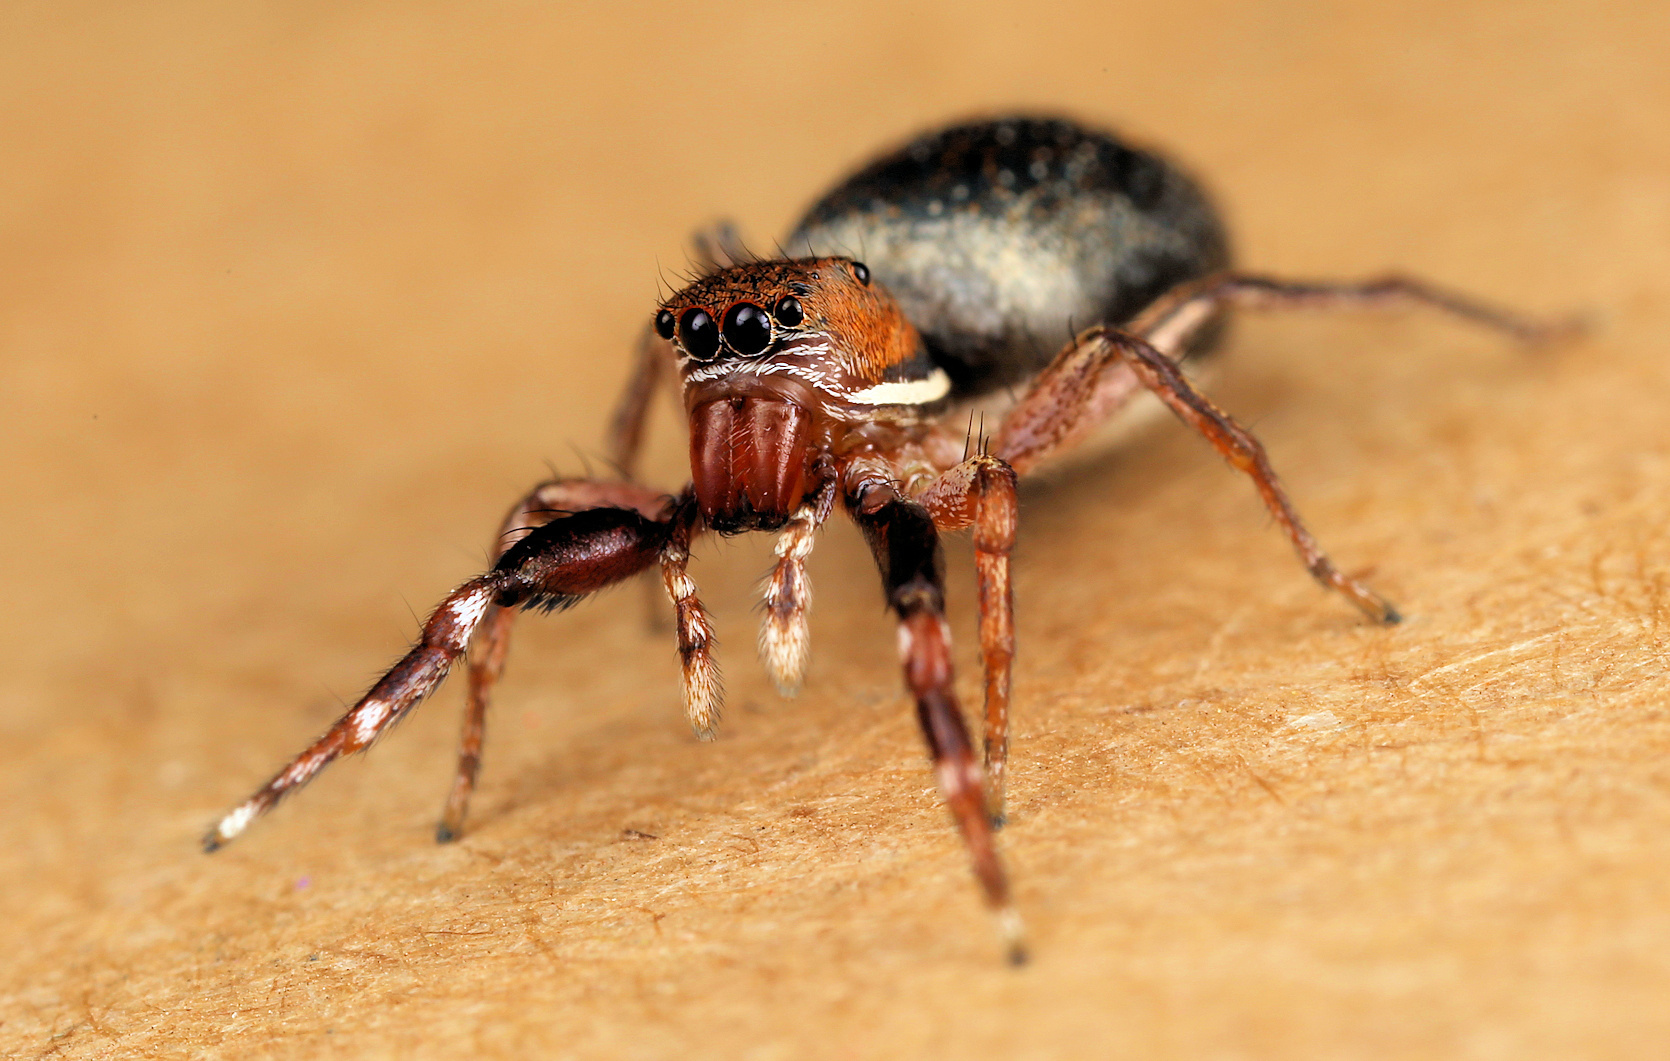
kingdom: Animalia
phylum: Arthropoda
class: Arachnida
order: Araneae
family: Salticidae
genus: Natta
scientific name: Natta chionogaster
